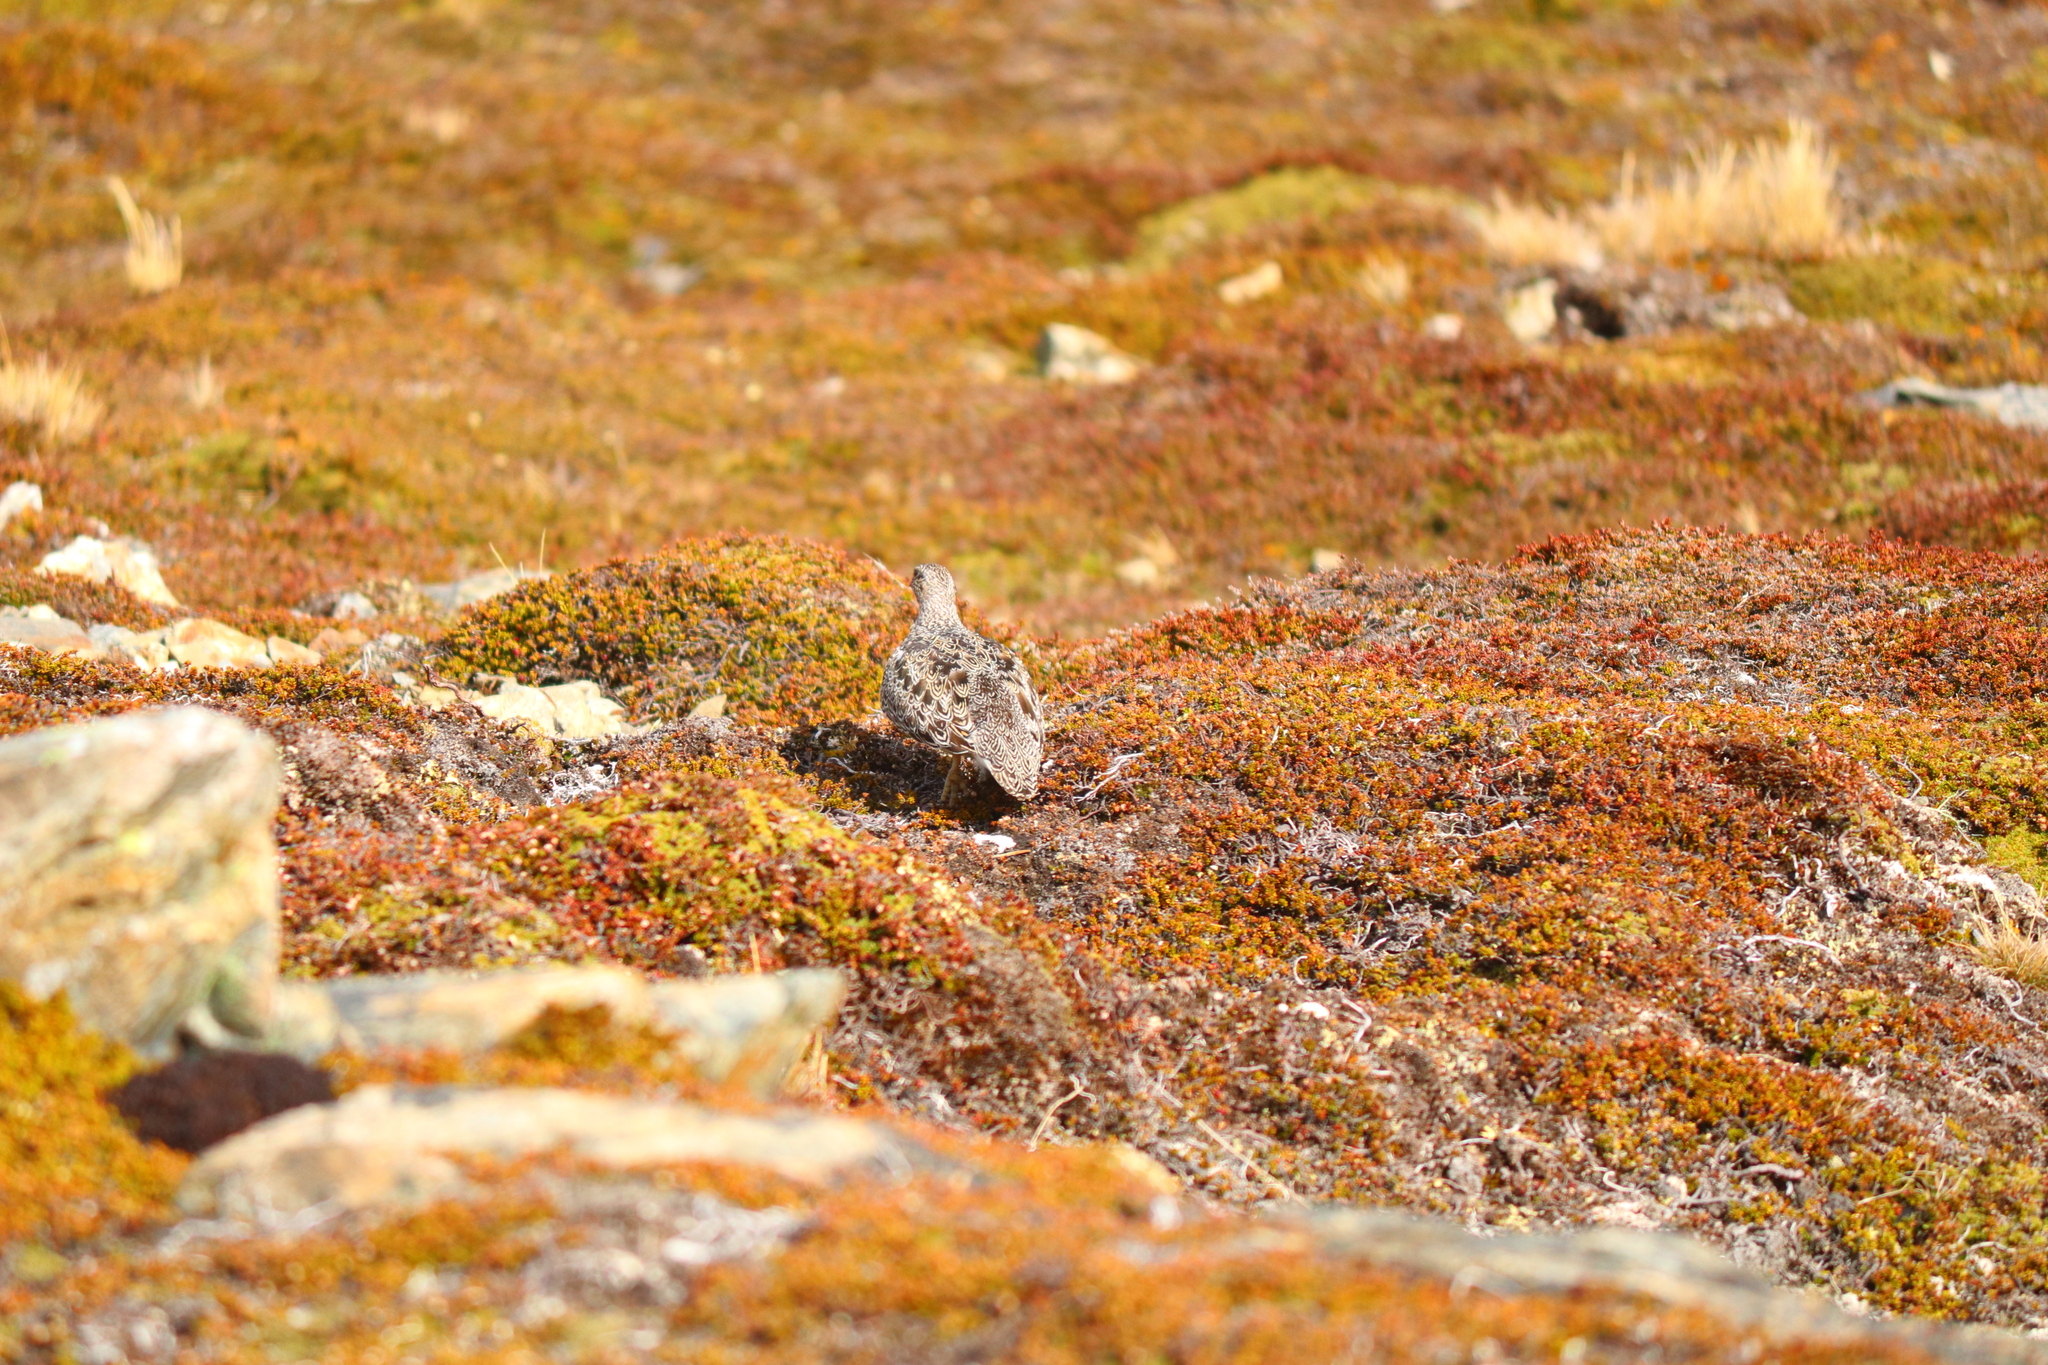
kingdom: Animalia
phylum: Chordata
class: Aves
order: Charadriiformes
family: Thinocoridae
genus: Attagis
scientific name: Attagis malouinus
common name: White-bellied seedsnipe
